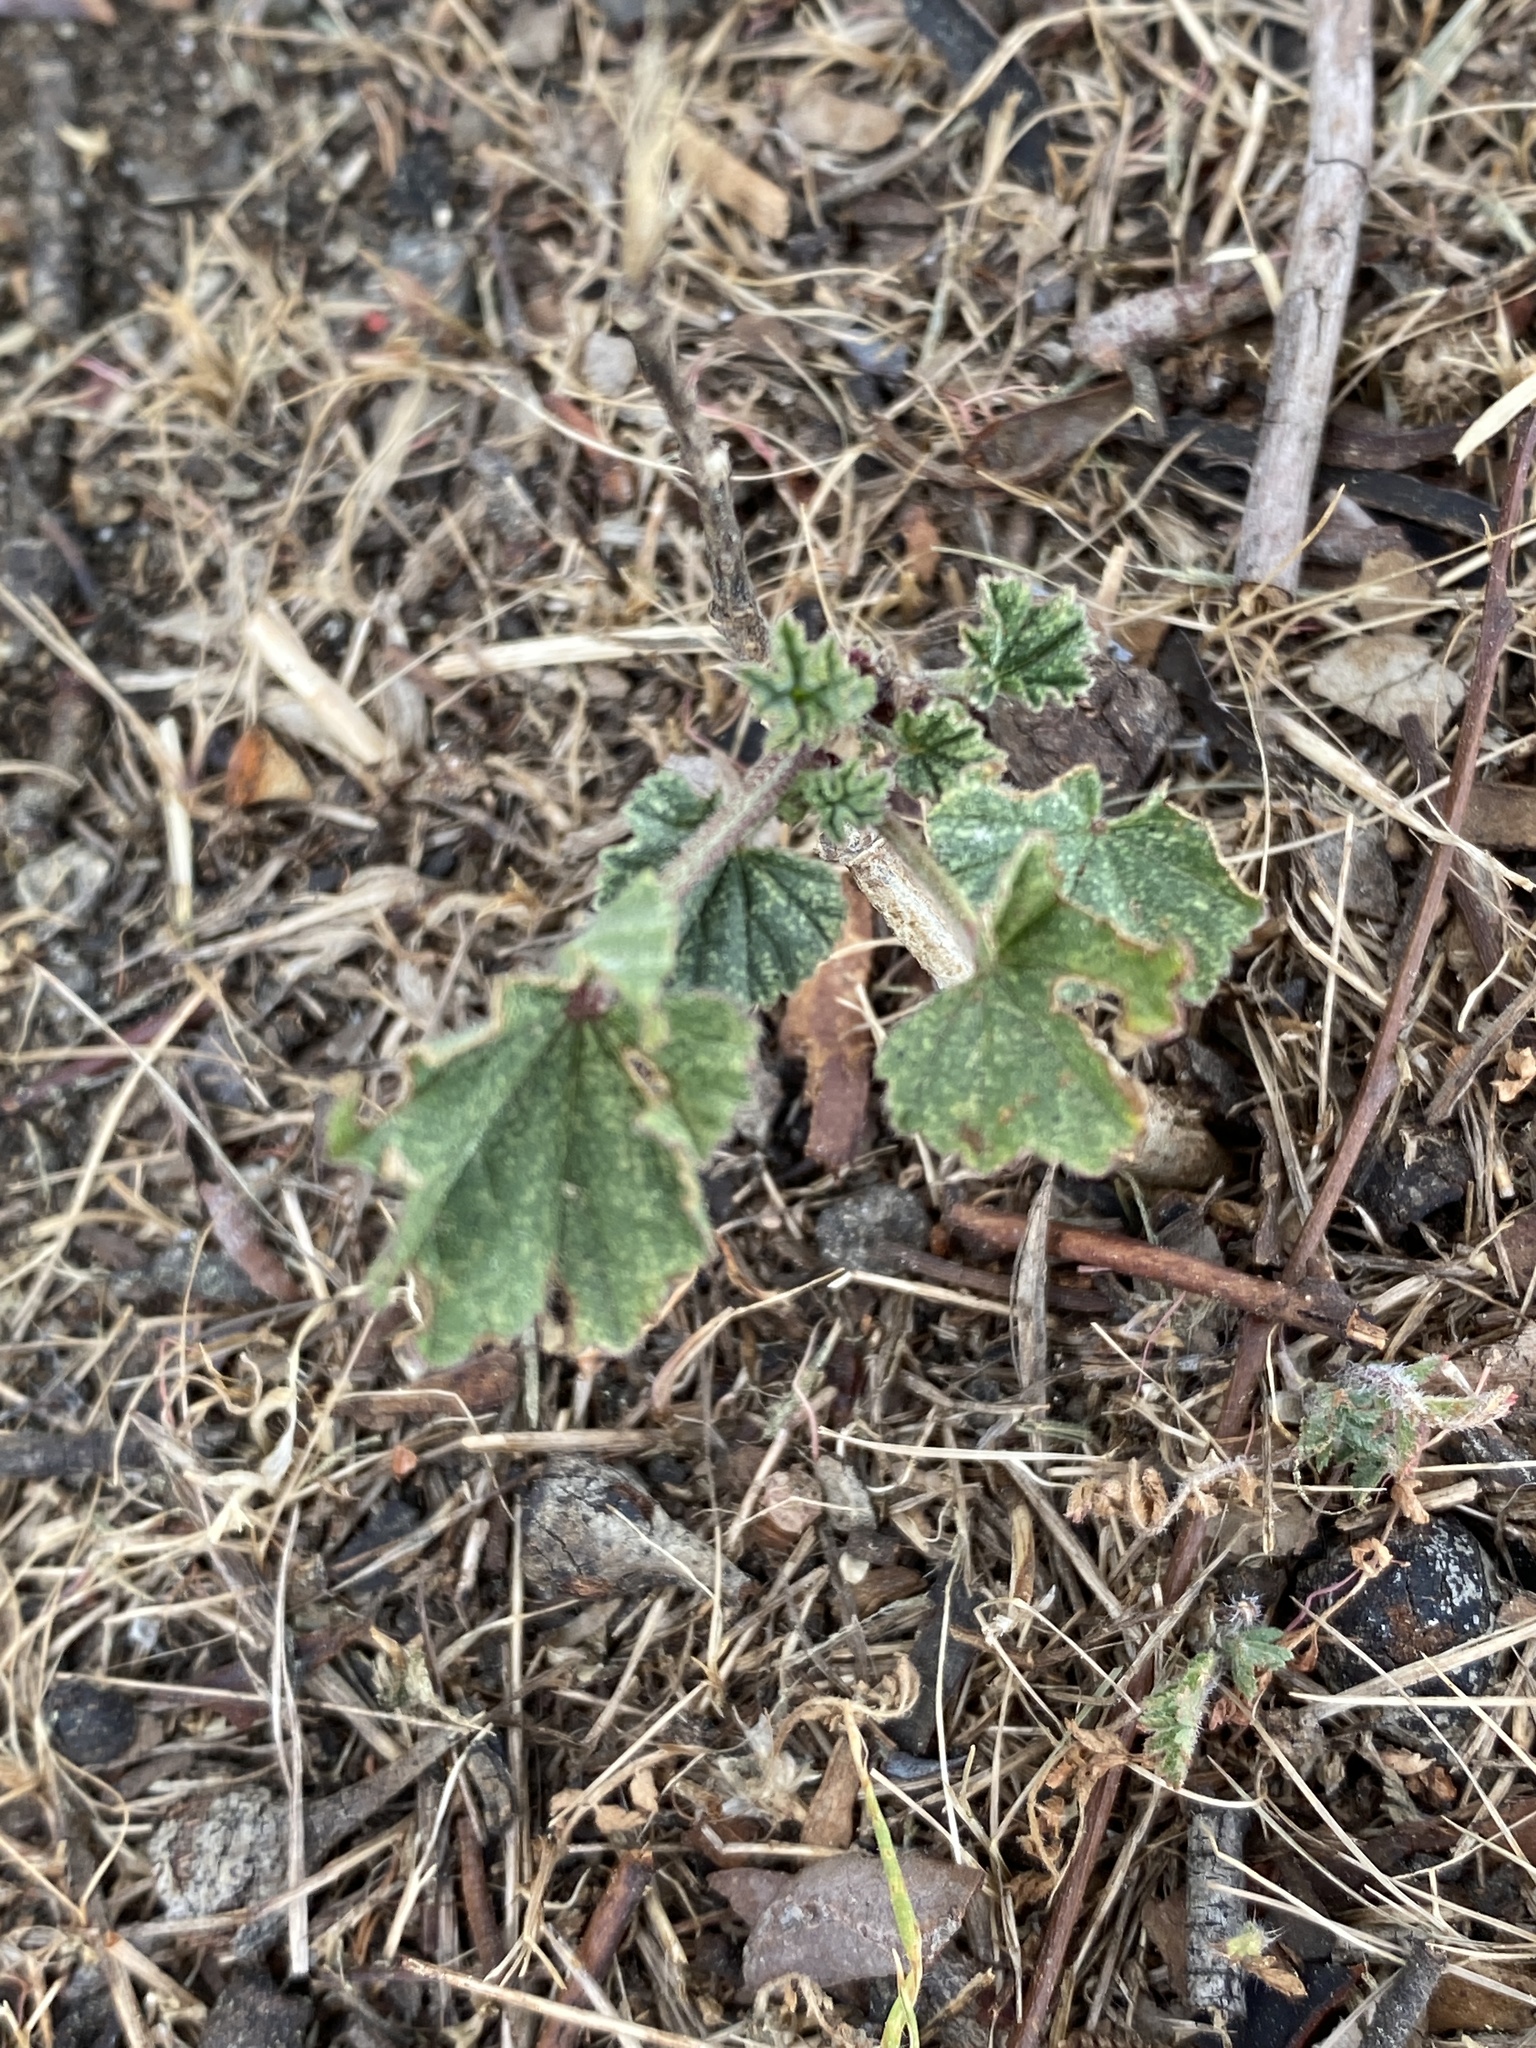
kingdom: Plantae
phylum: Tracheophyta
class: Magnoliopsida
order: Malvales
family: Malvaceae
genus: Malva
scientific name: Malva
